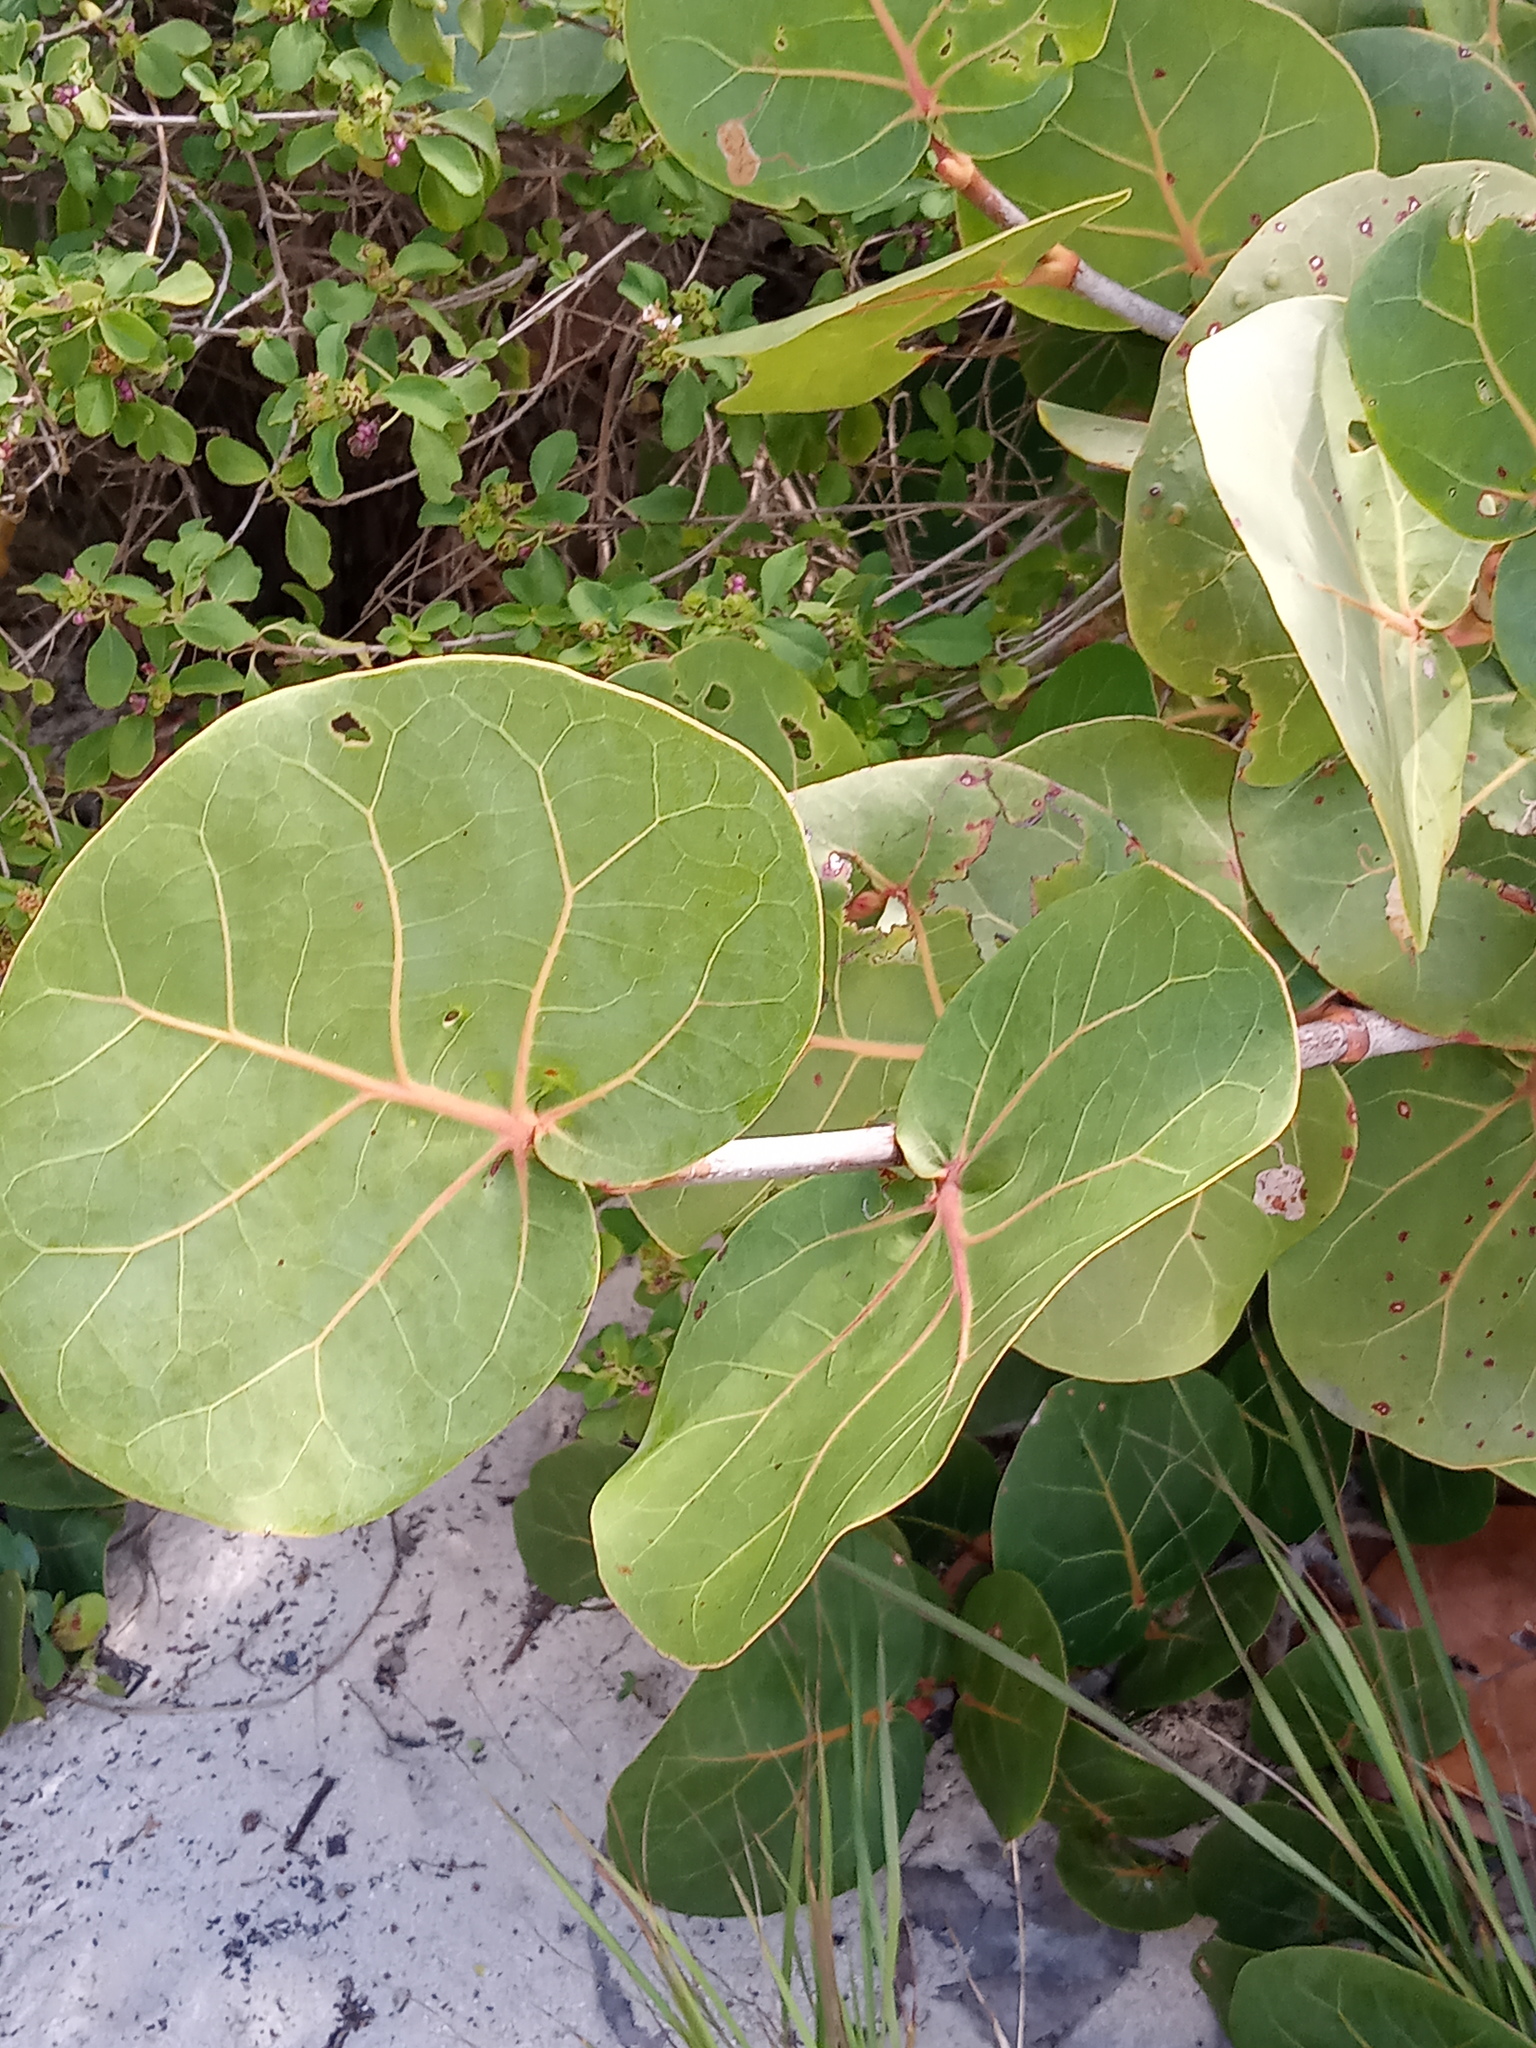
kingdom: Plantae
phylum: Tracheophyta
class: Magnoliopsida
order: Caryophyllales
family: Polygonaceae
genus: Coccoloba
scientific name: Coccoloba uvifera
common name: Seagrape
